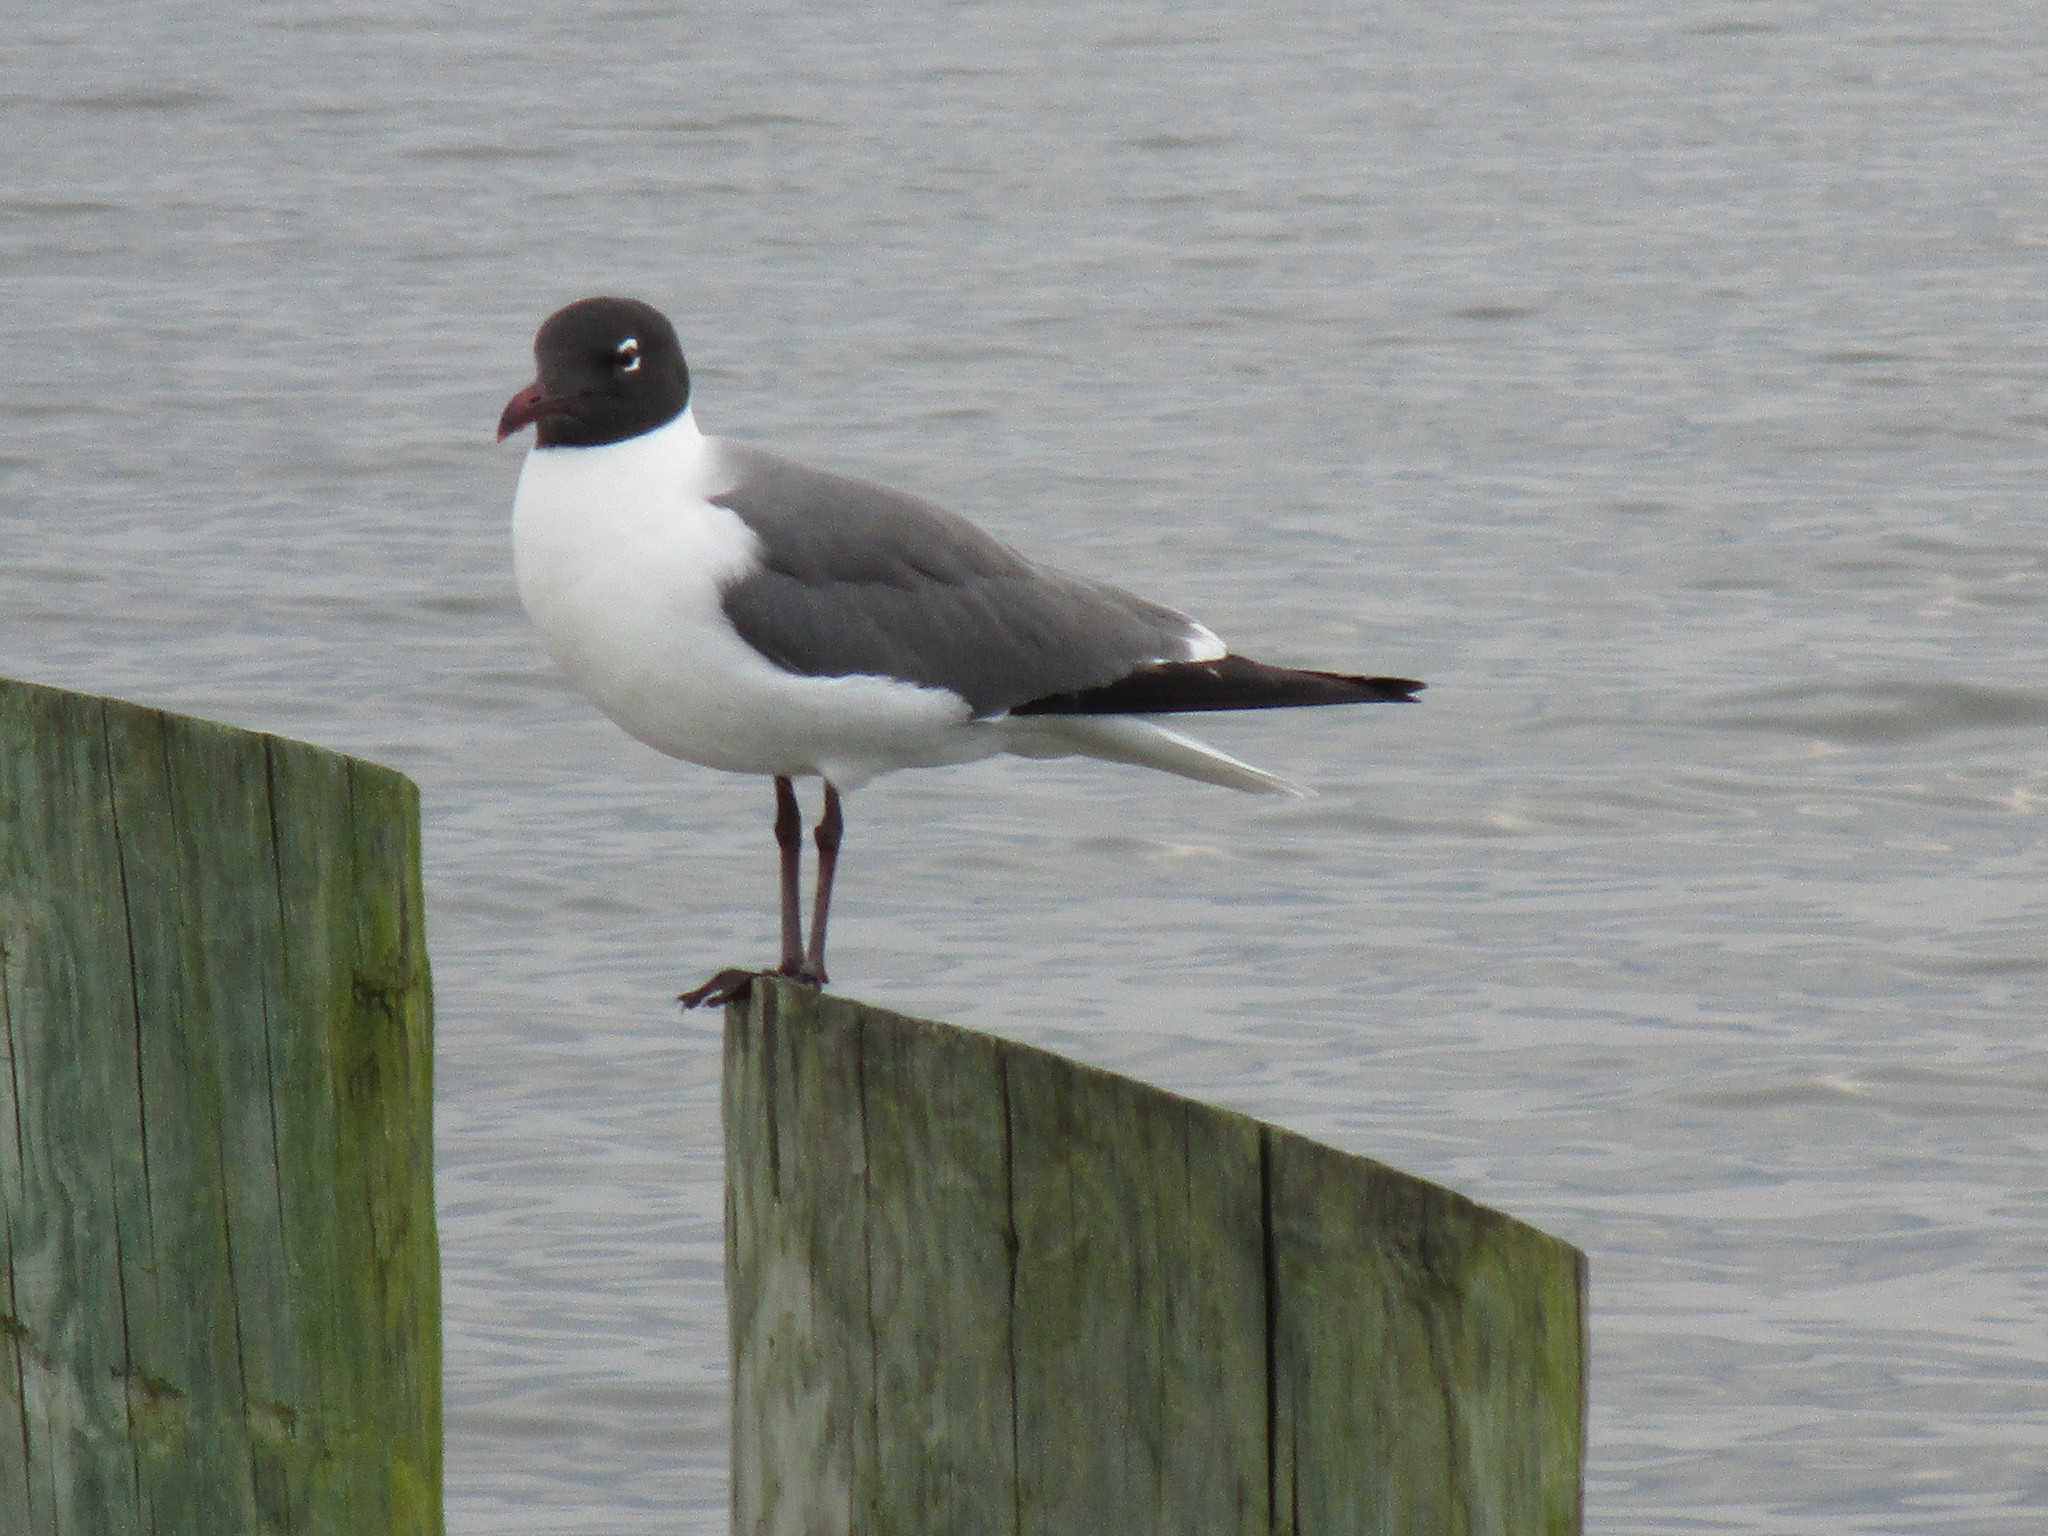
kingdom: Animalia
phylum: Chordata
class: Aves
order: Charadriiformes
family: Laridae
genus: Leucophaeus
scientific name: Leucophaeus atricilla
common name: Laughing gull
